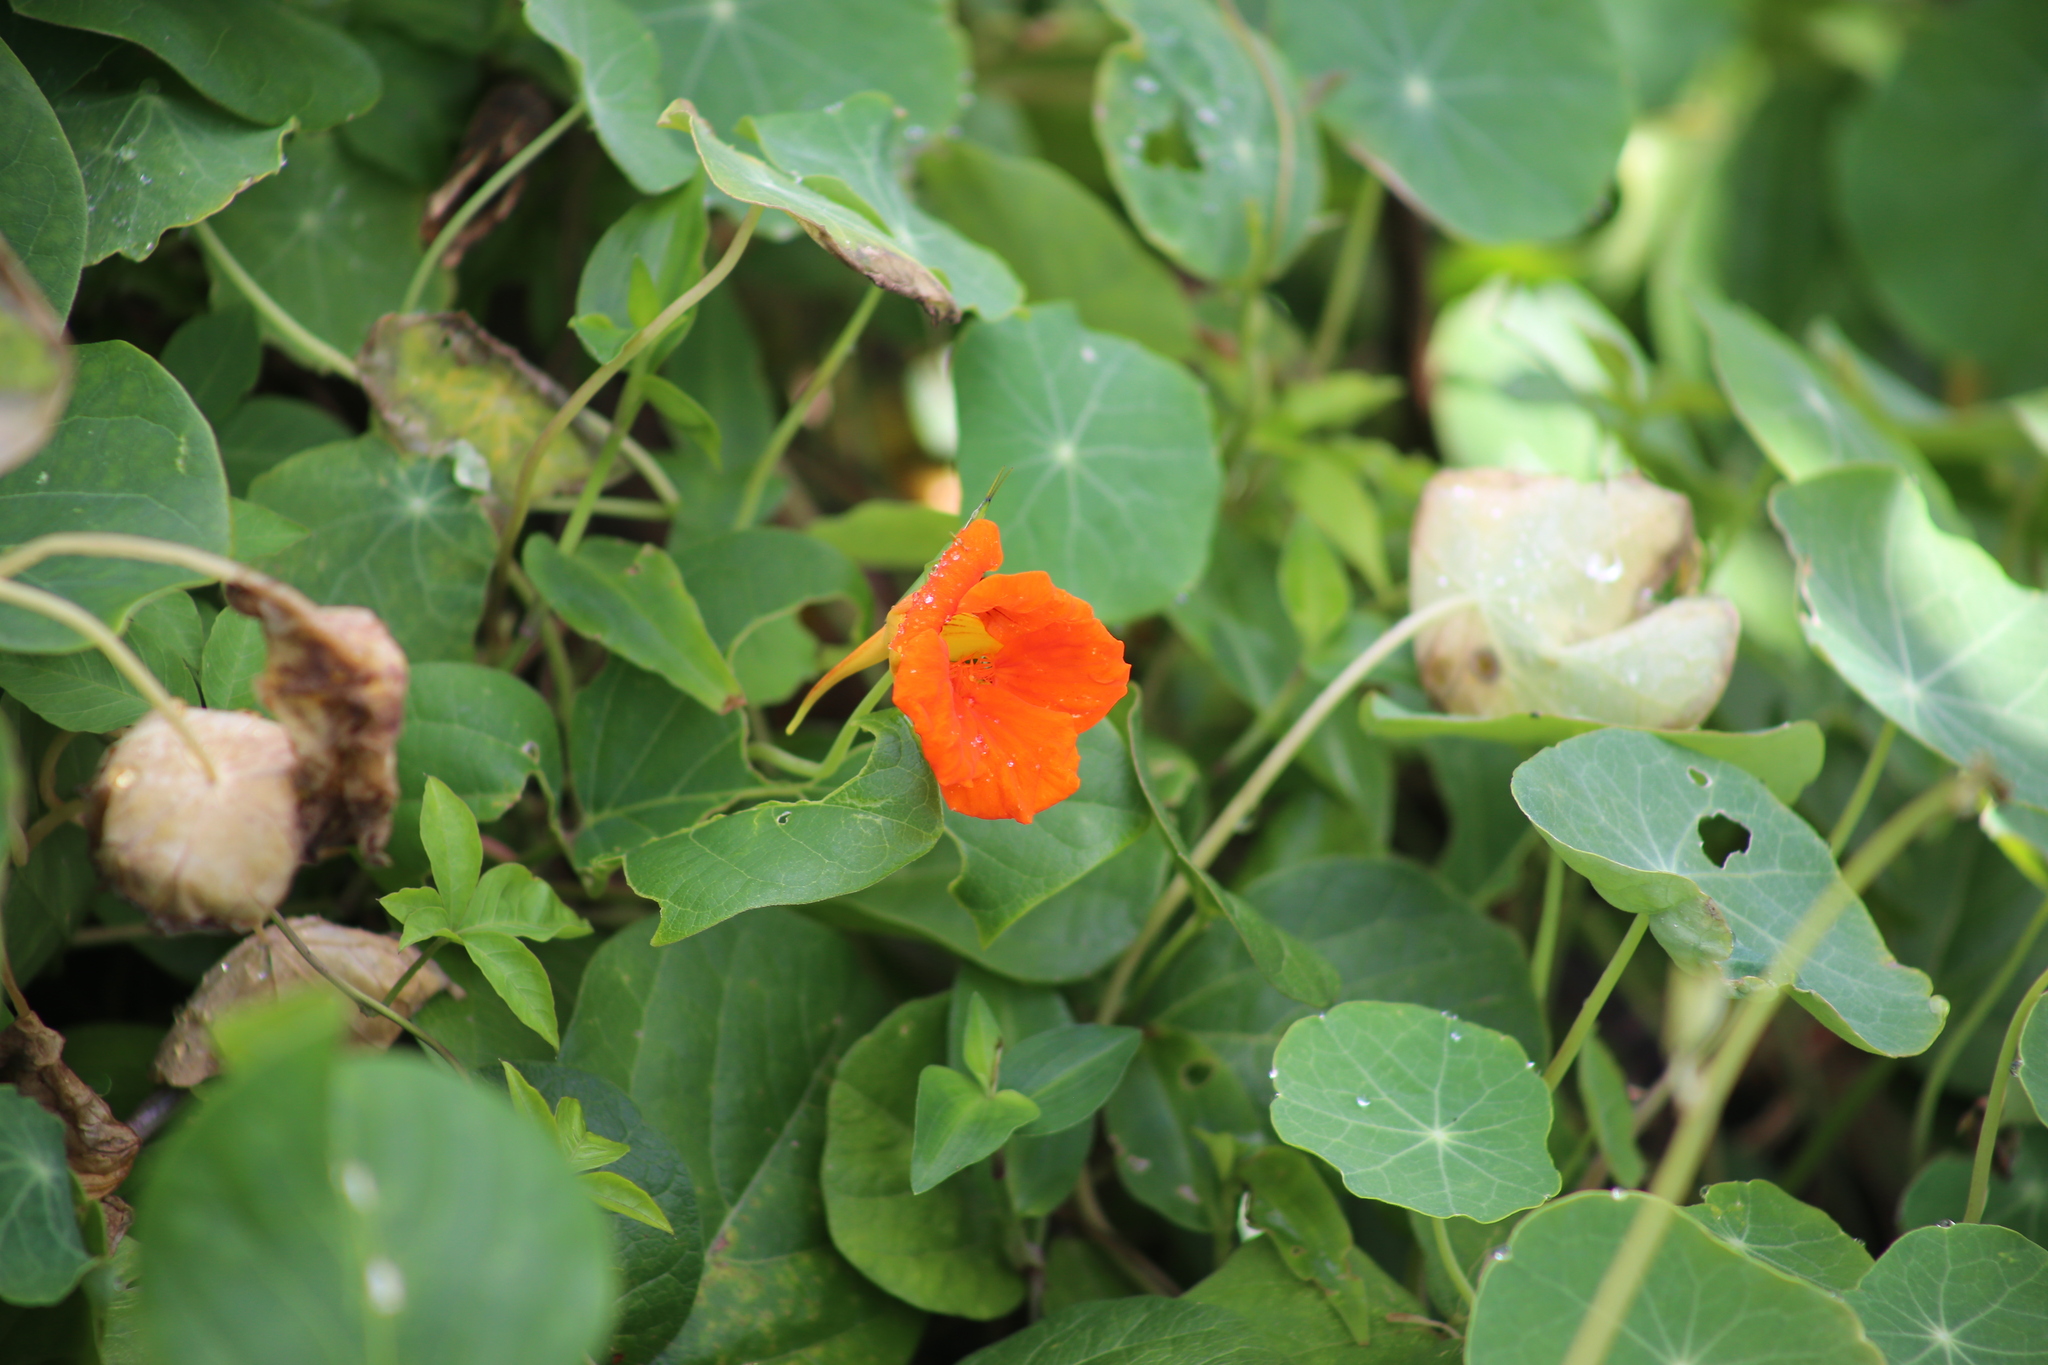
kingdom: Plantae
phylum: Tracheophyta
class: Magnoliopsida
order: Brassicales
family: Tropaeolaceae
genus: Tropaeolum
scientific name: Tropaeolum majus
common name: Nasturtium
